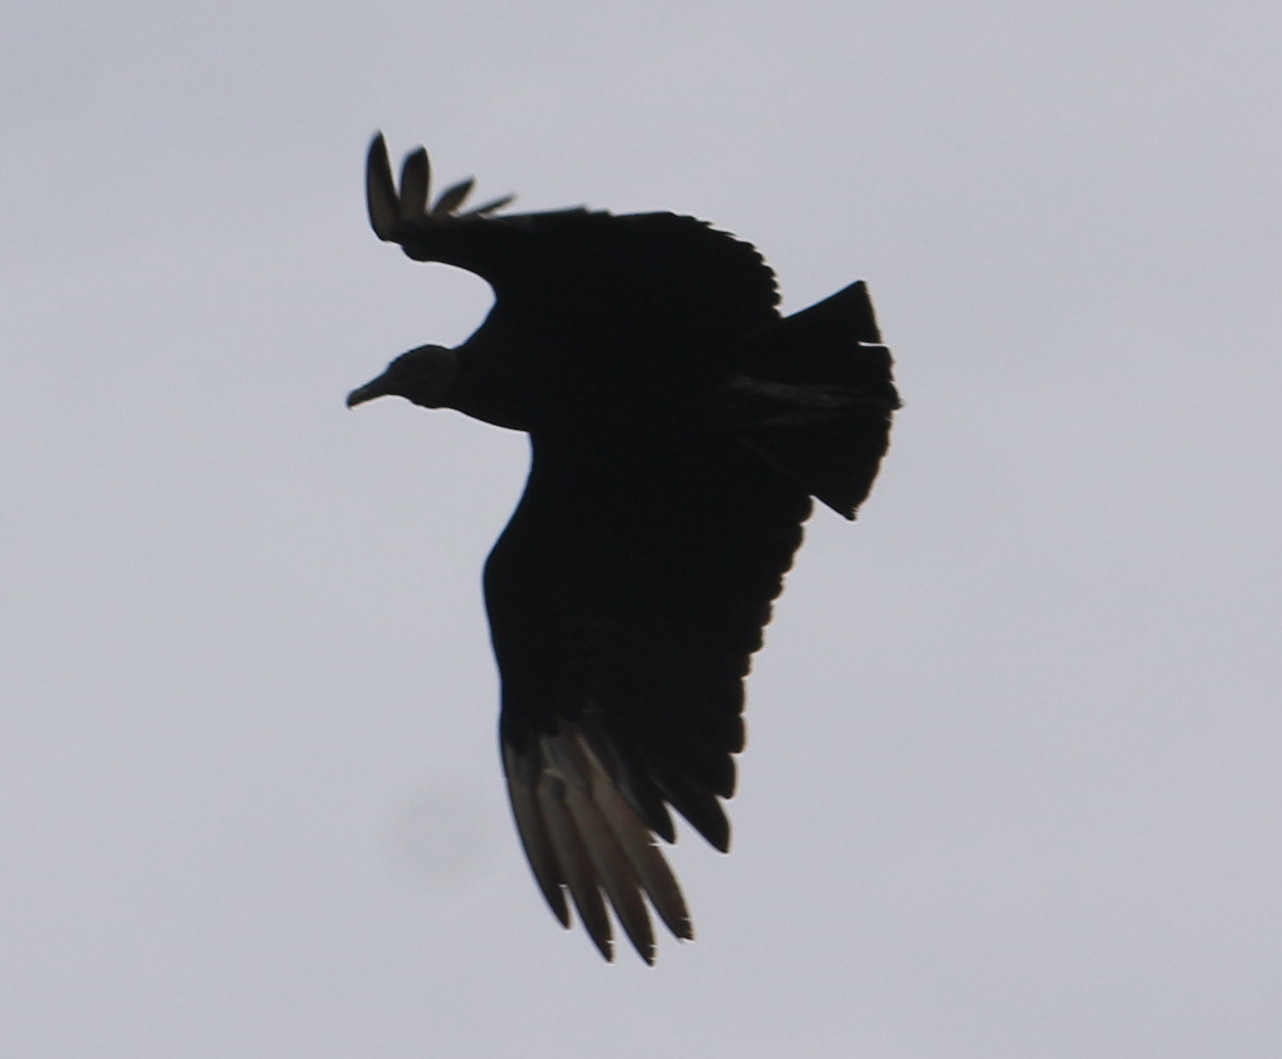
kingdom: Animalia
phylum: Chordata
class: Aves
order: Accipitriformes
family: Cathartidae
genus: Coragyps
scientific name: Coragyps atratus
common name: Black vulture
